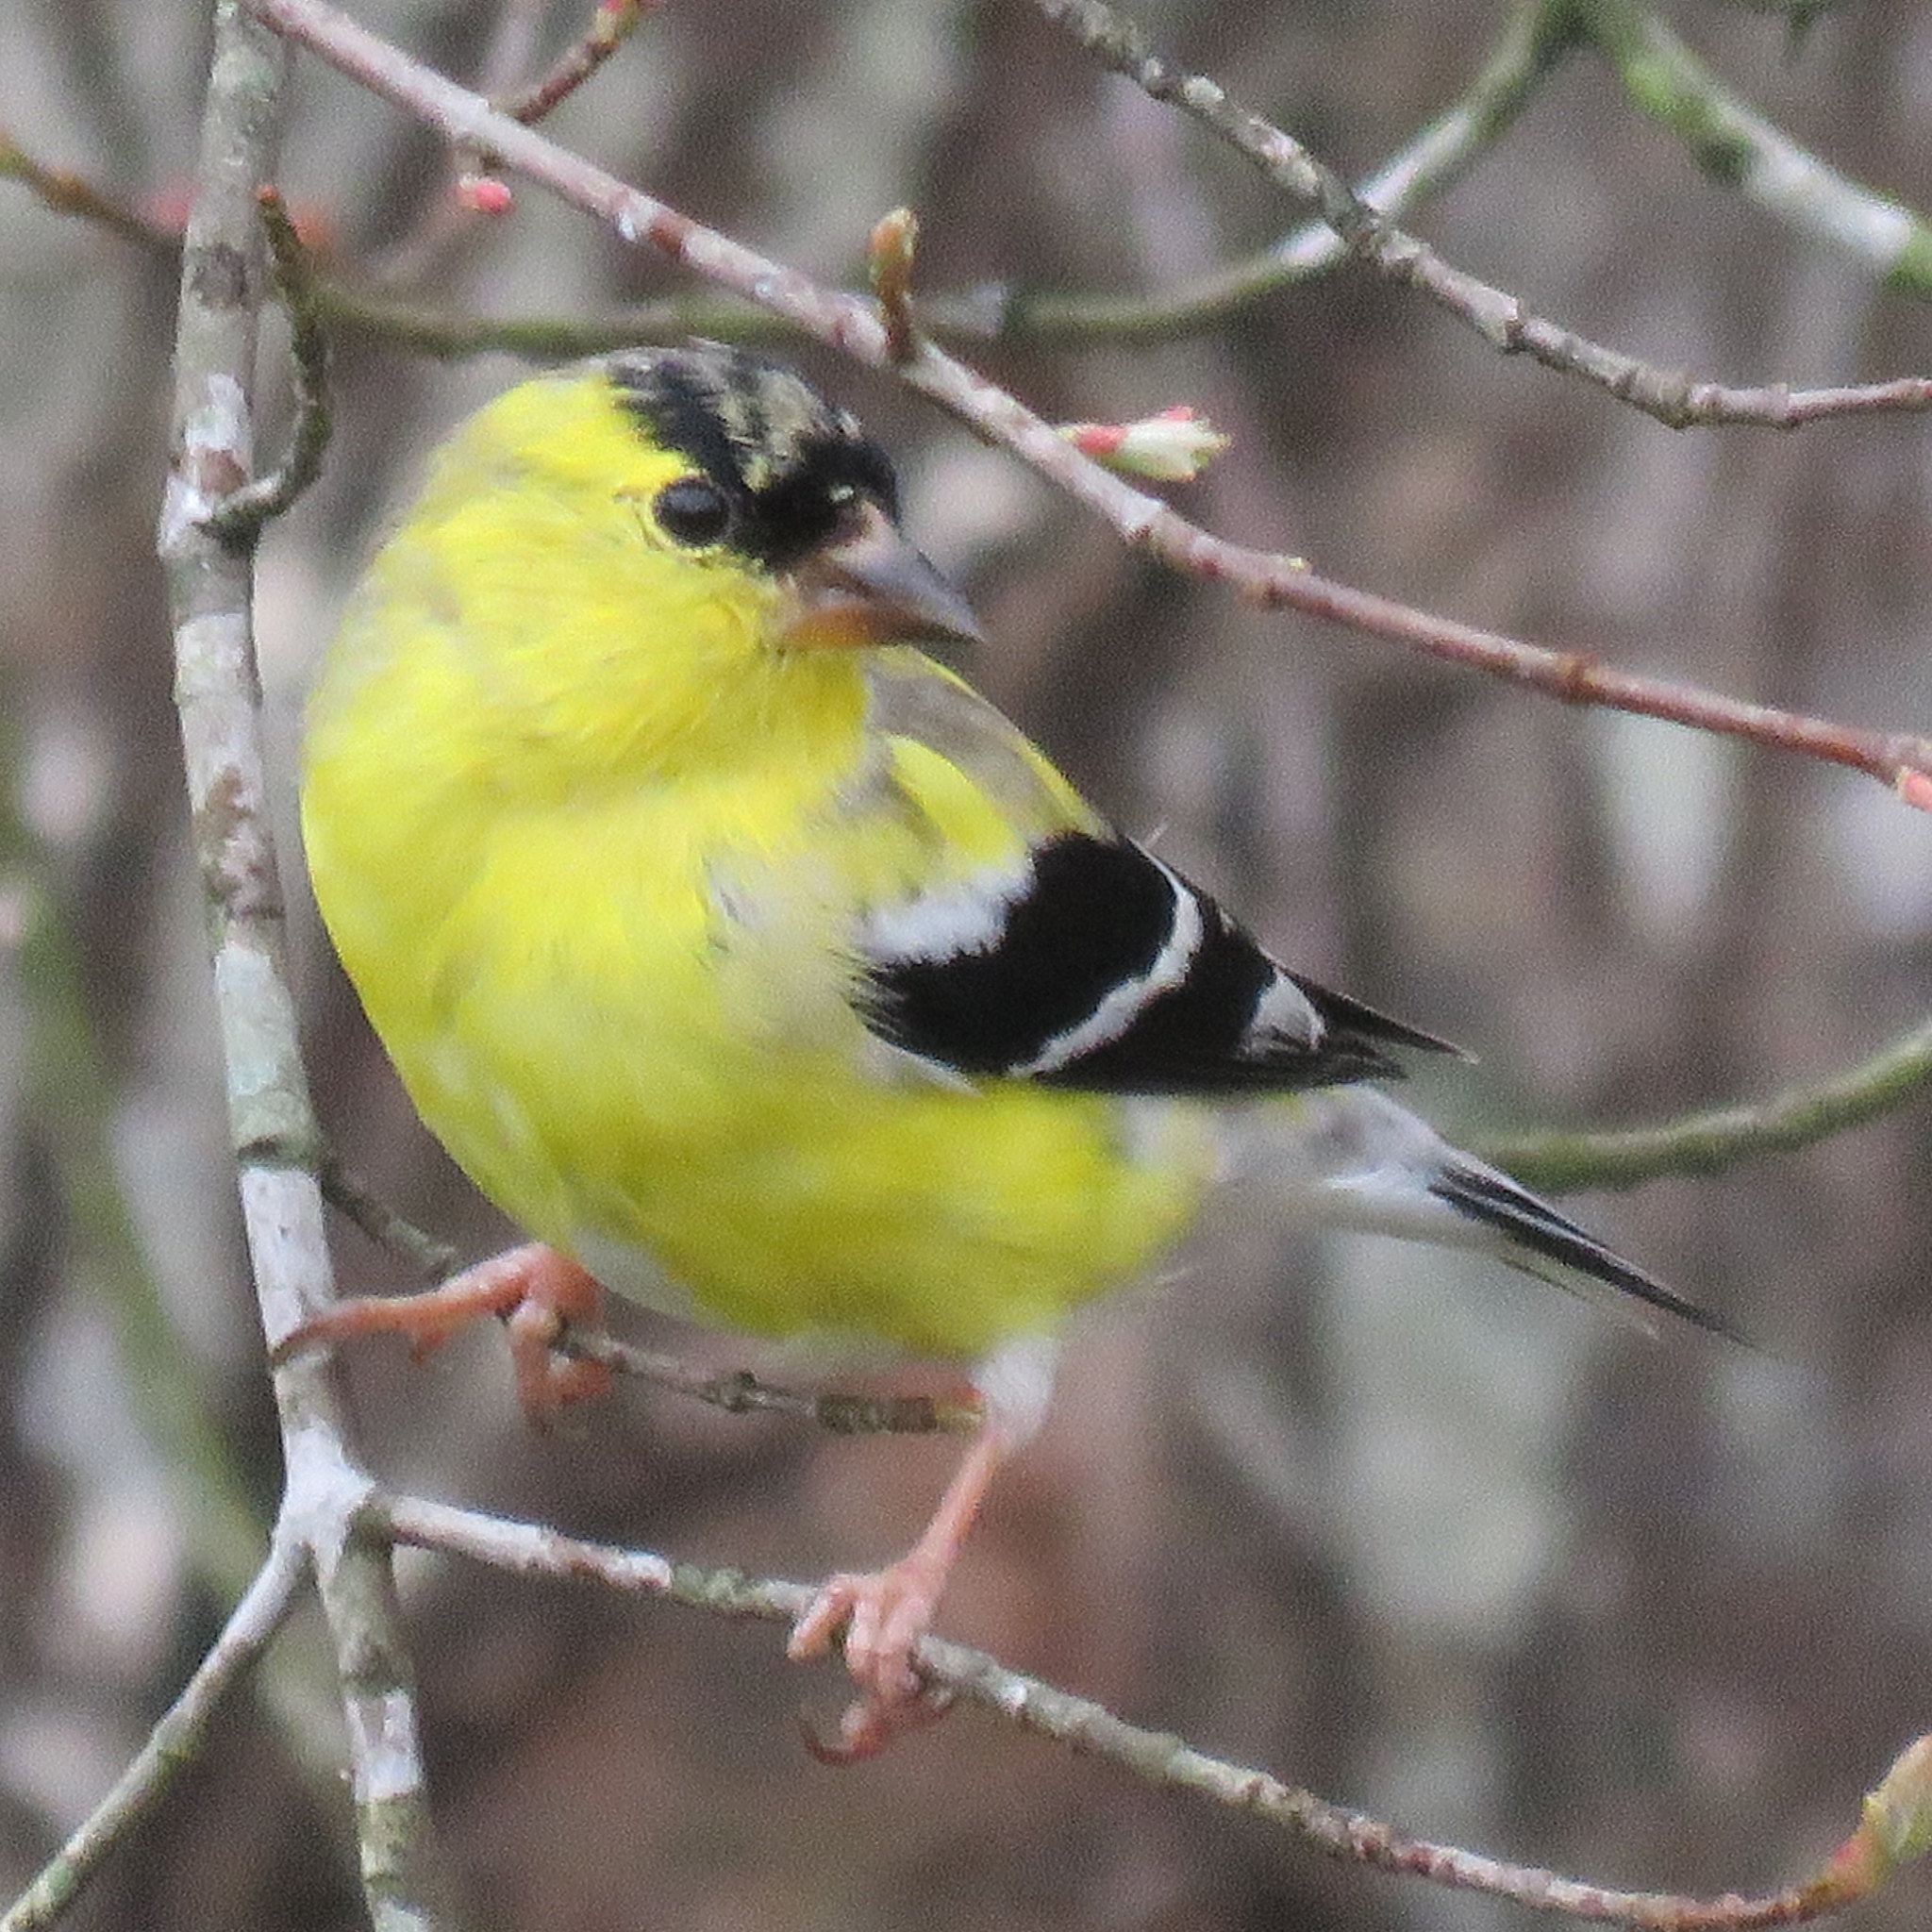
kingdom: Animalia
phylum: Chordata
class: Aves
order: Passeriformes
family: Fringillidae
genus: Spinus
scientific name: Spinus tristis
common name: American goldfinch
